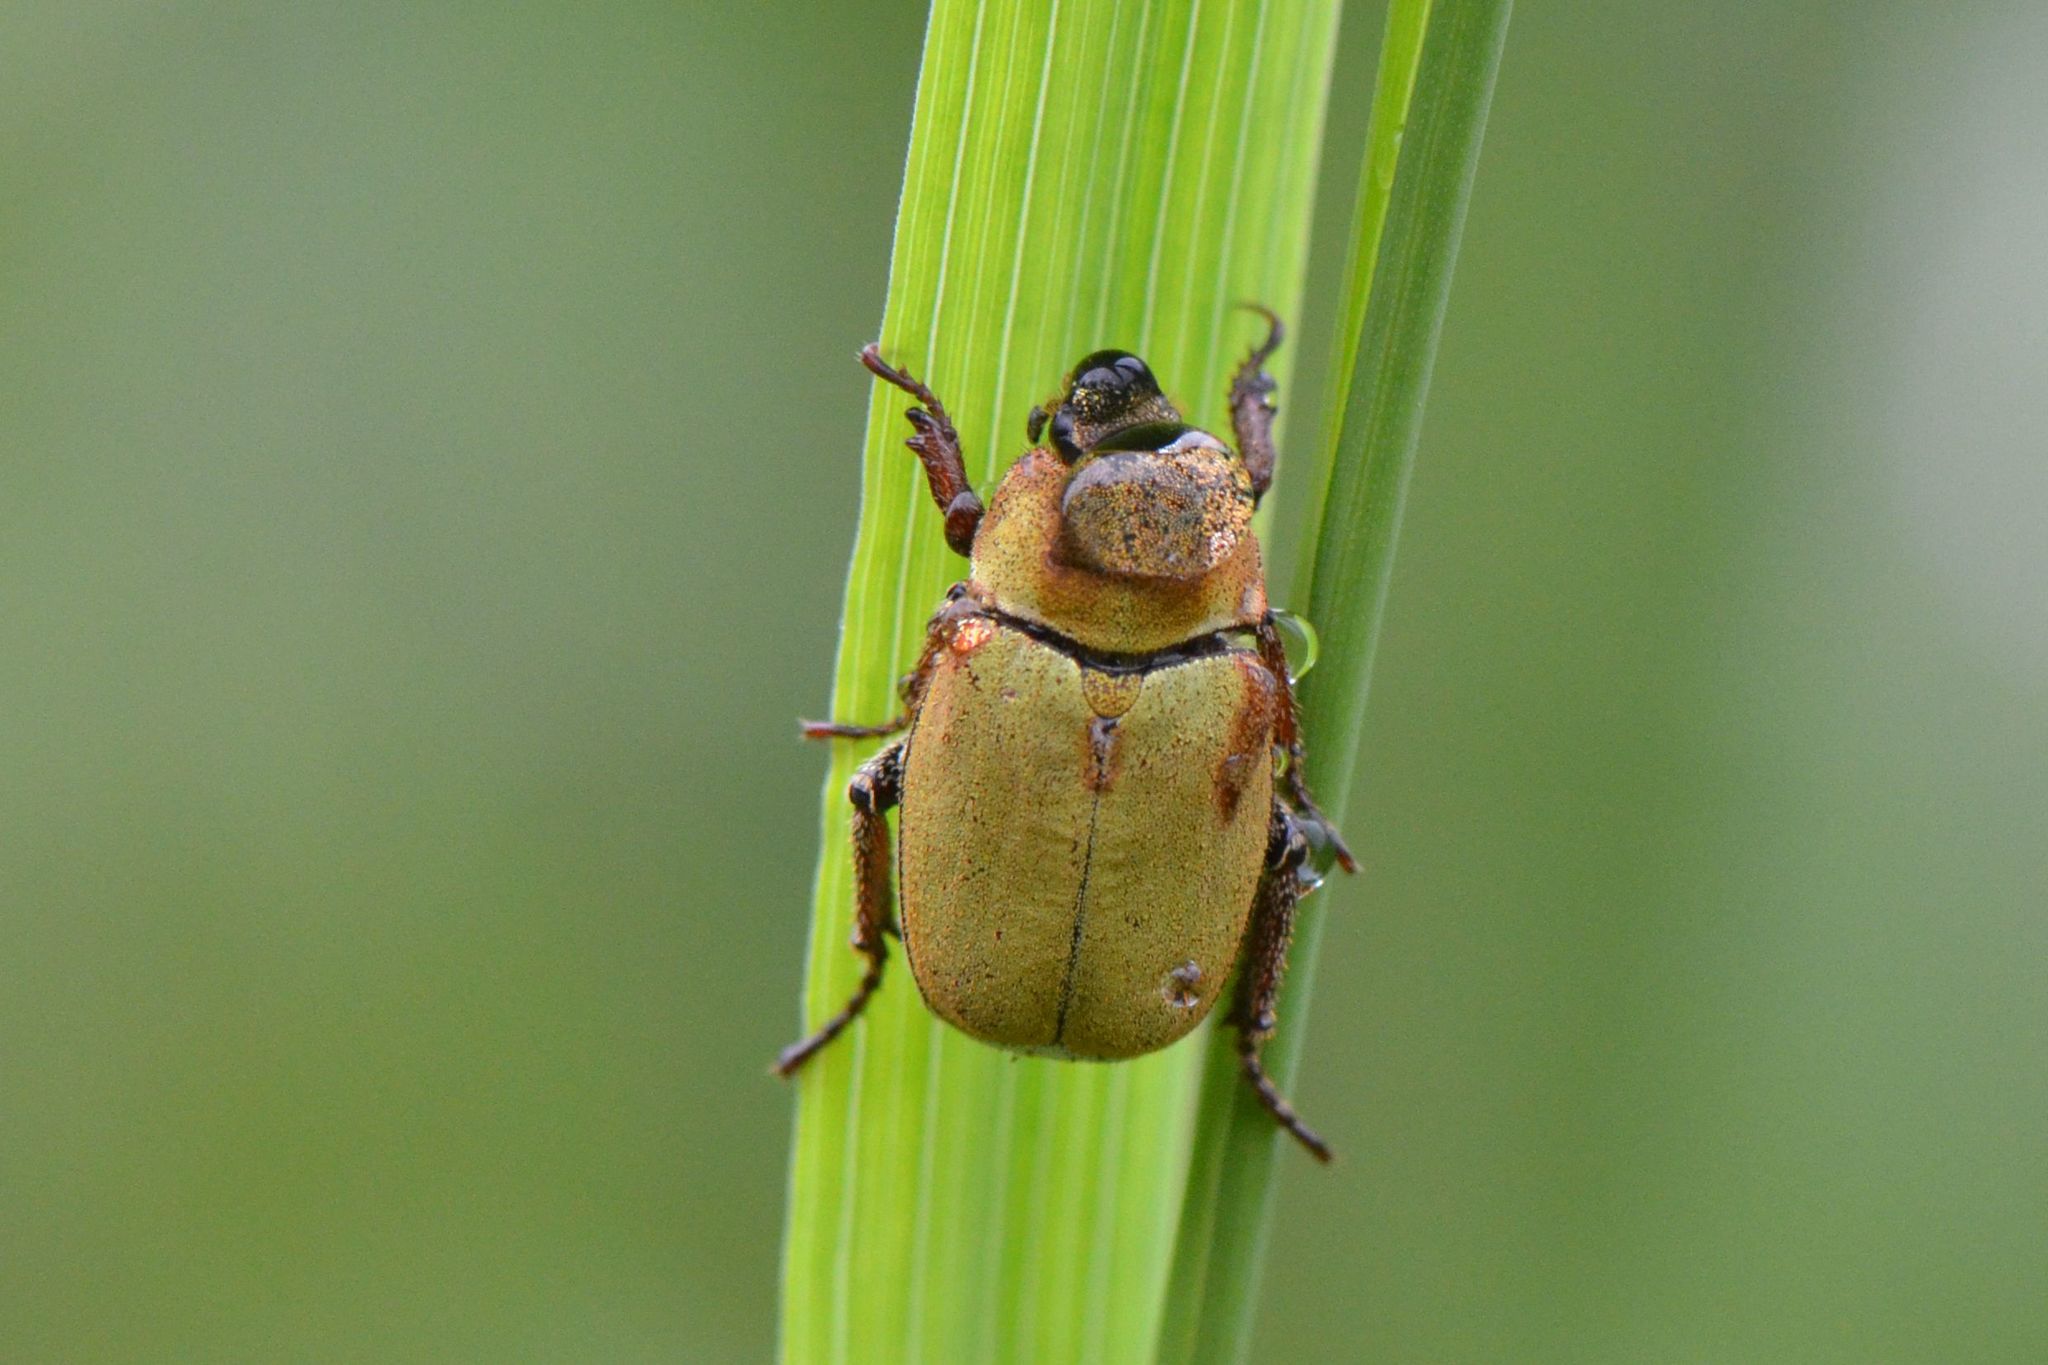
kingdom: Animalia
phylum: Arthropoda
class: Insecta
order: Coleoptera
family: Scarabaeidae
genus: Hoplia
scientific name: Hoplia argentea
